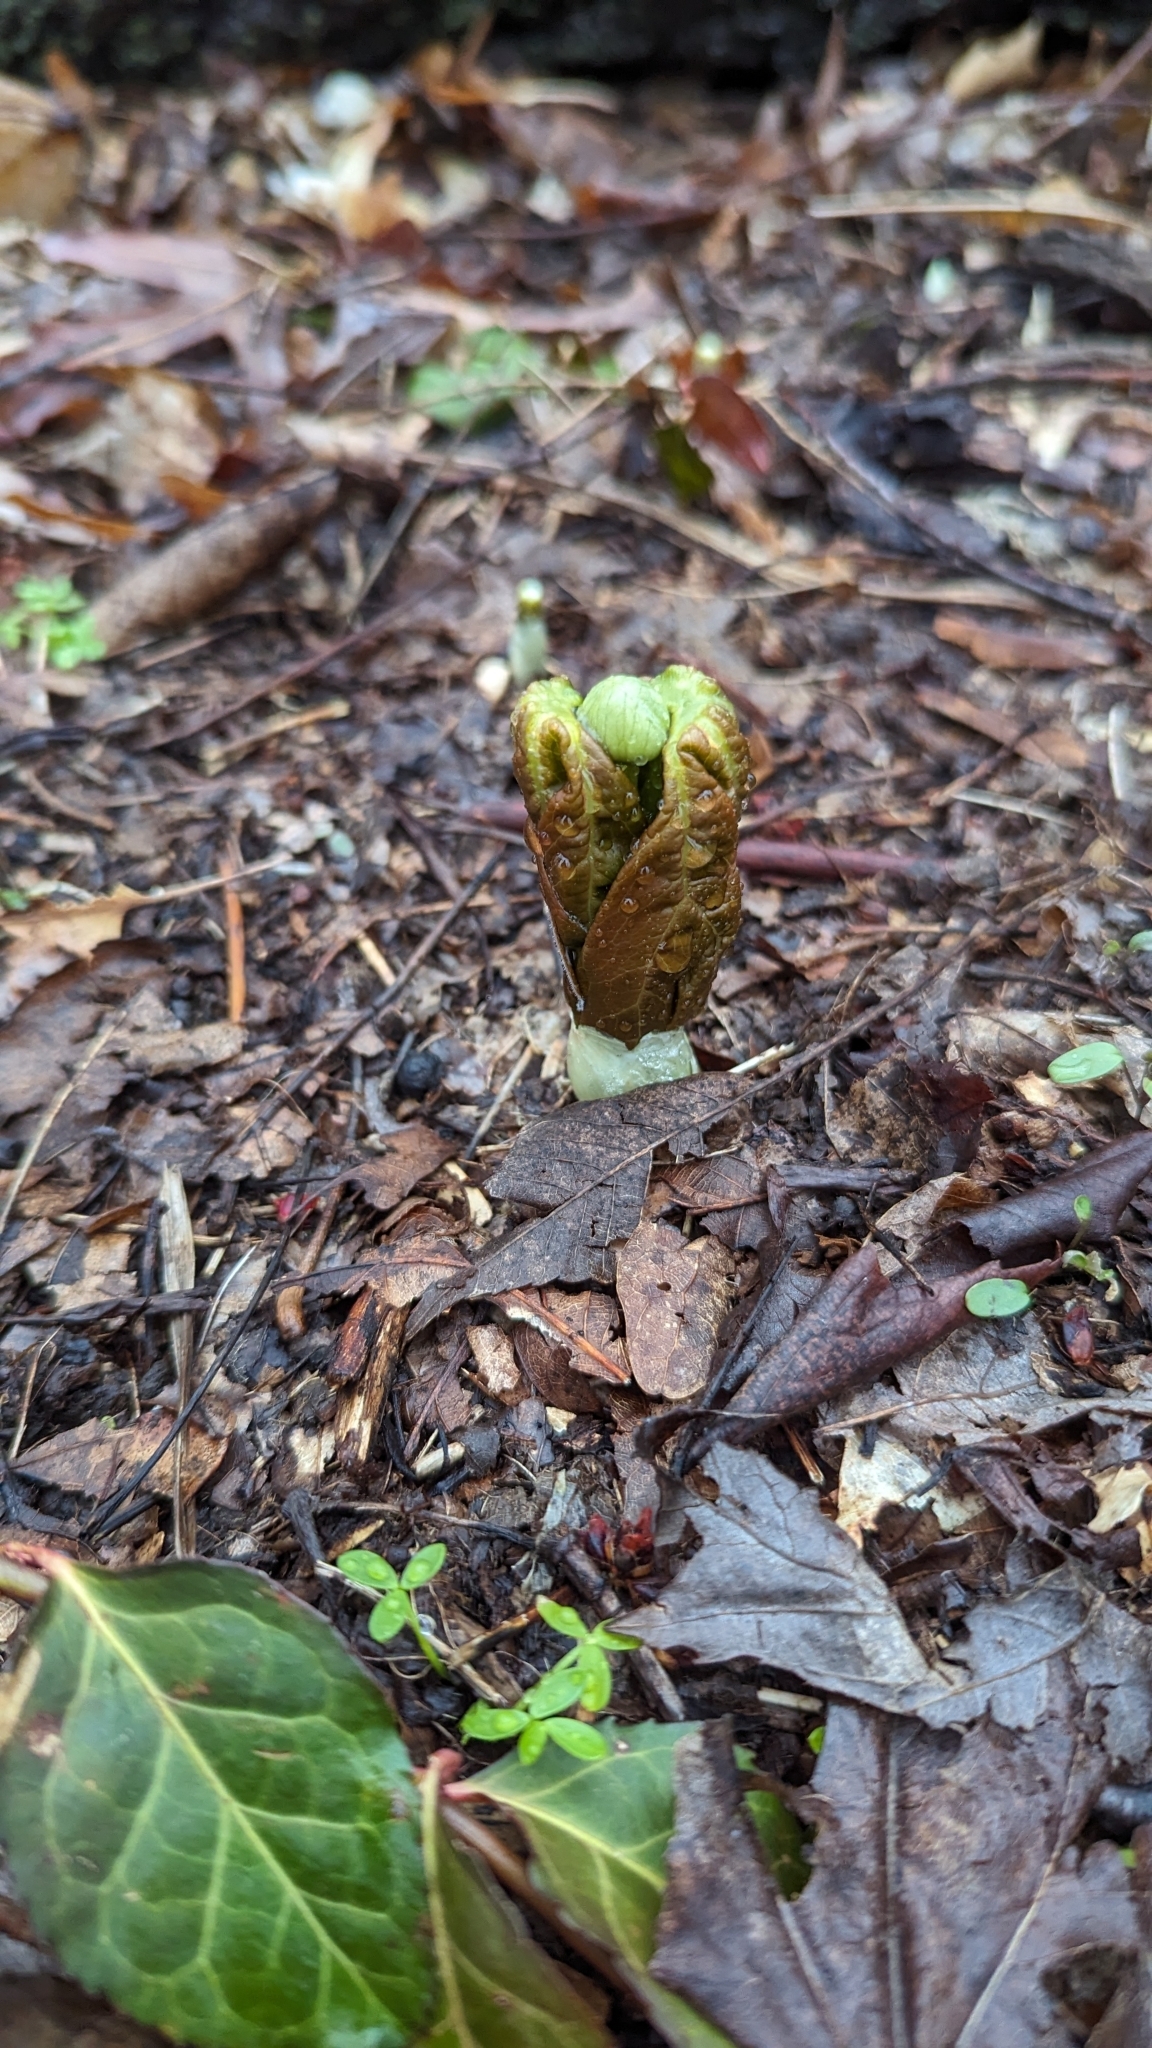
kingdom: Plantae
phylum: Tracheophyta
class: Magnoliopsida
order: Ranunculales
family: Berberidaceae
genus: Podophyllum
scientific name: Podophyllum peltatum
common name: Wild mandrake
